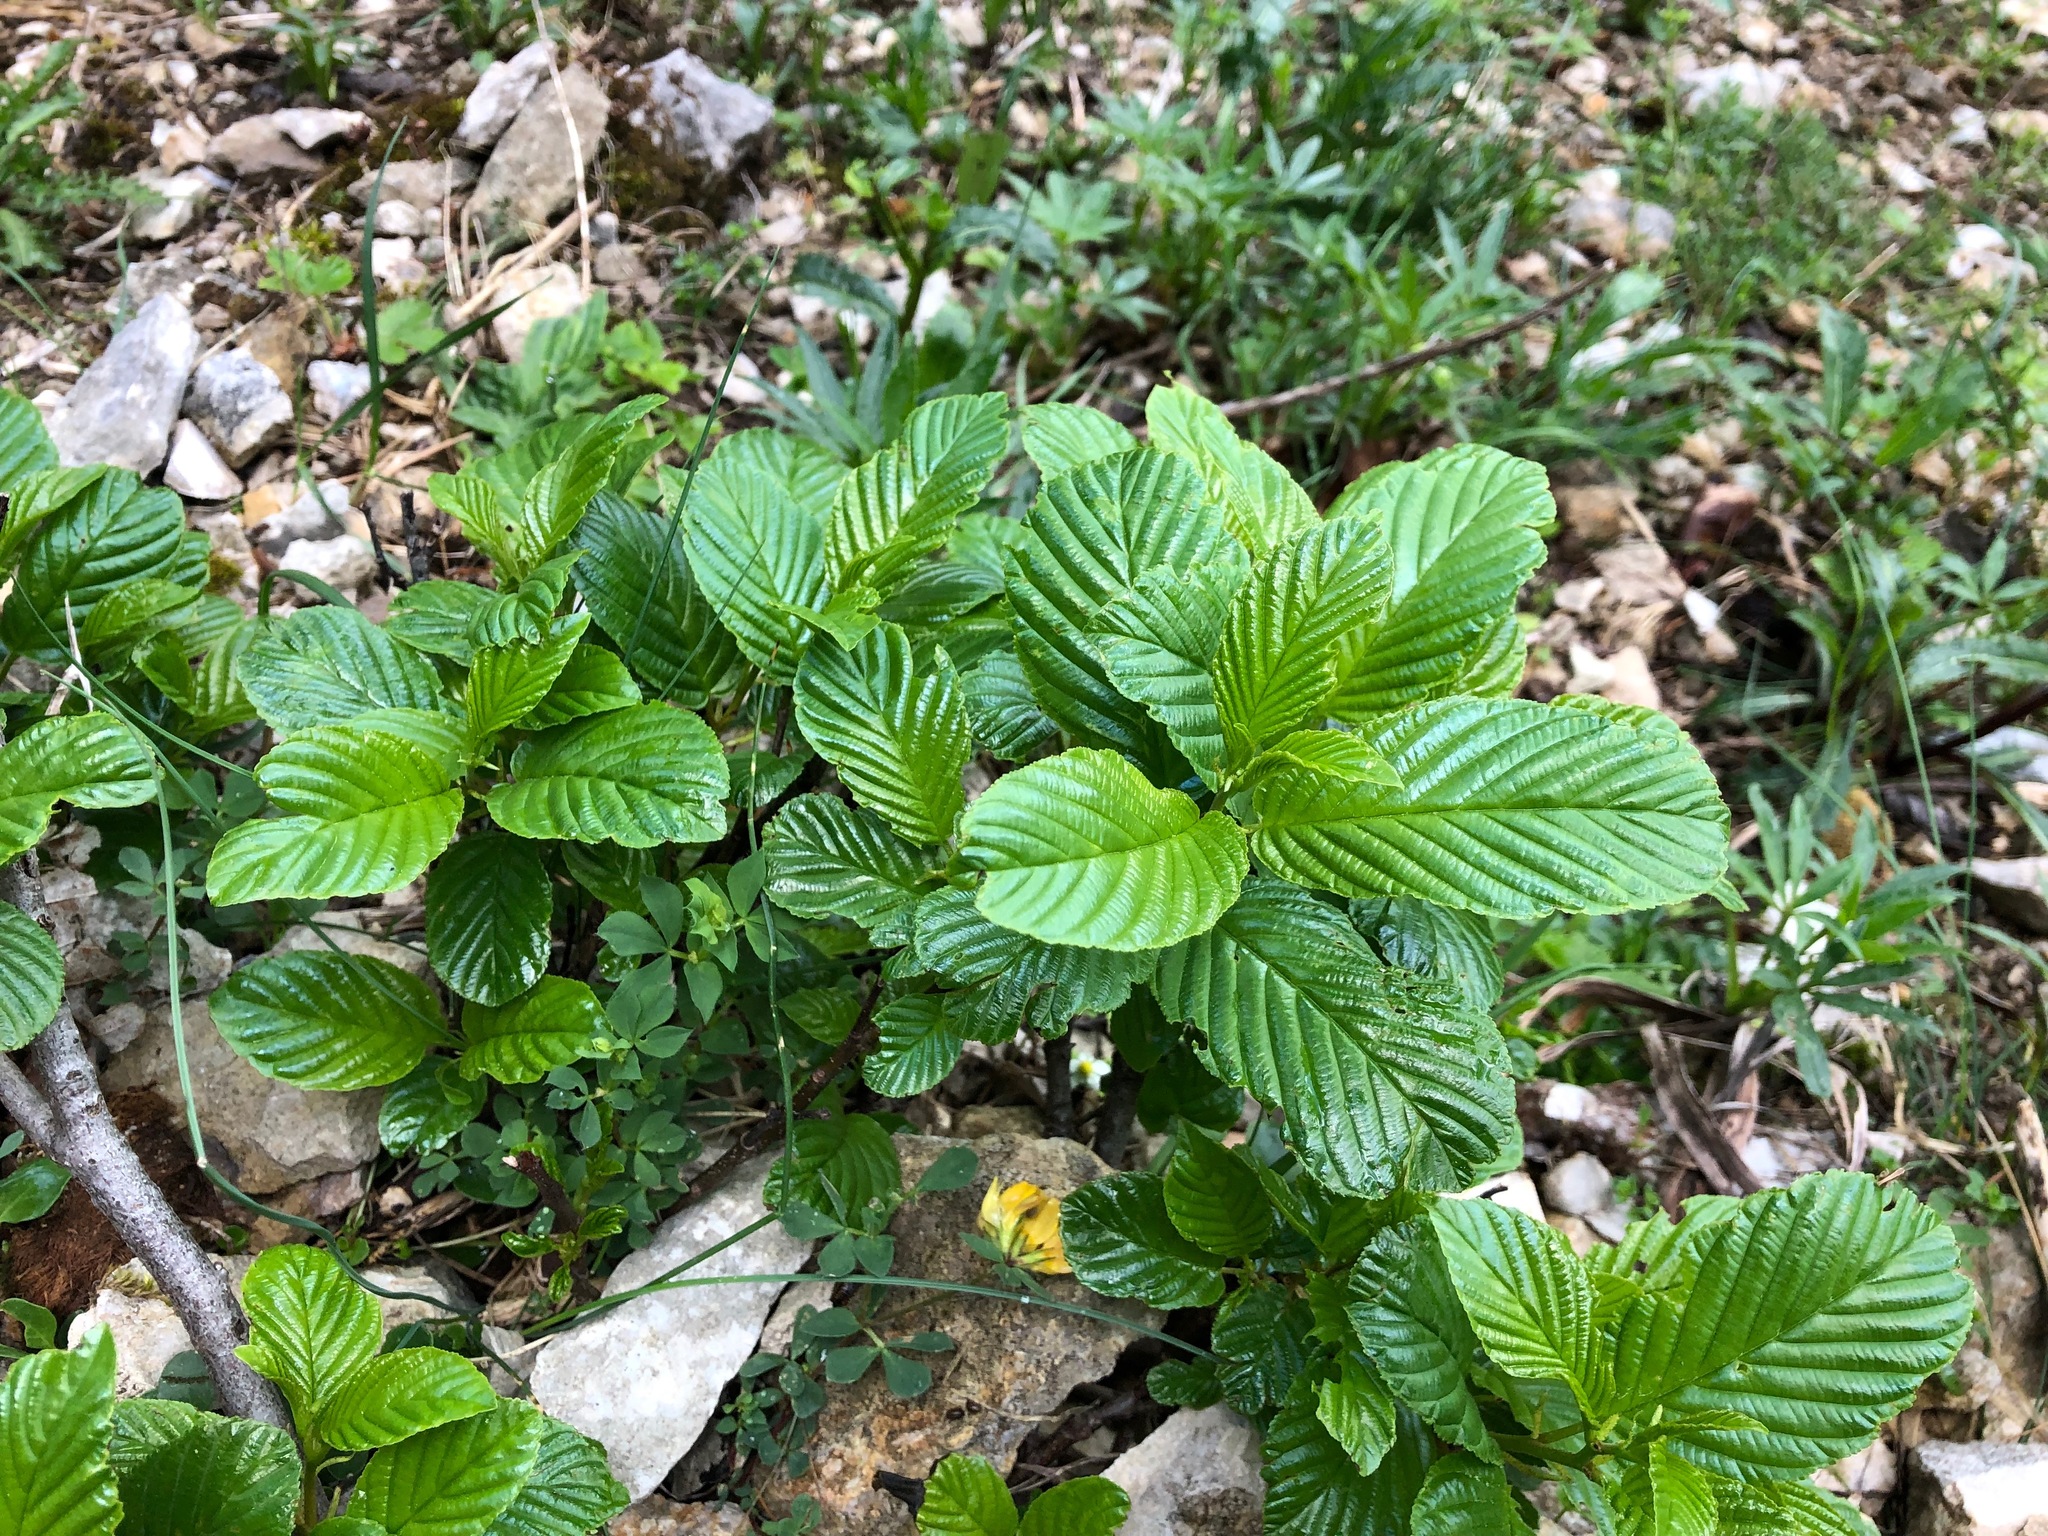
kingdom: Plantae
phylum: Tracheophyta
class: Magnoliopsida
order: Rosales
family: Rhamnaceae
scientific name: Rhamnaceae
